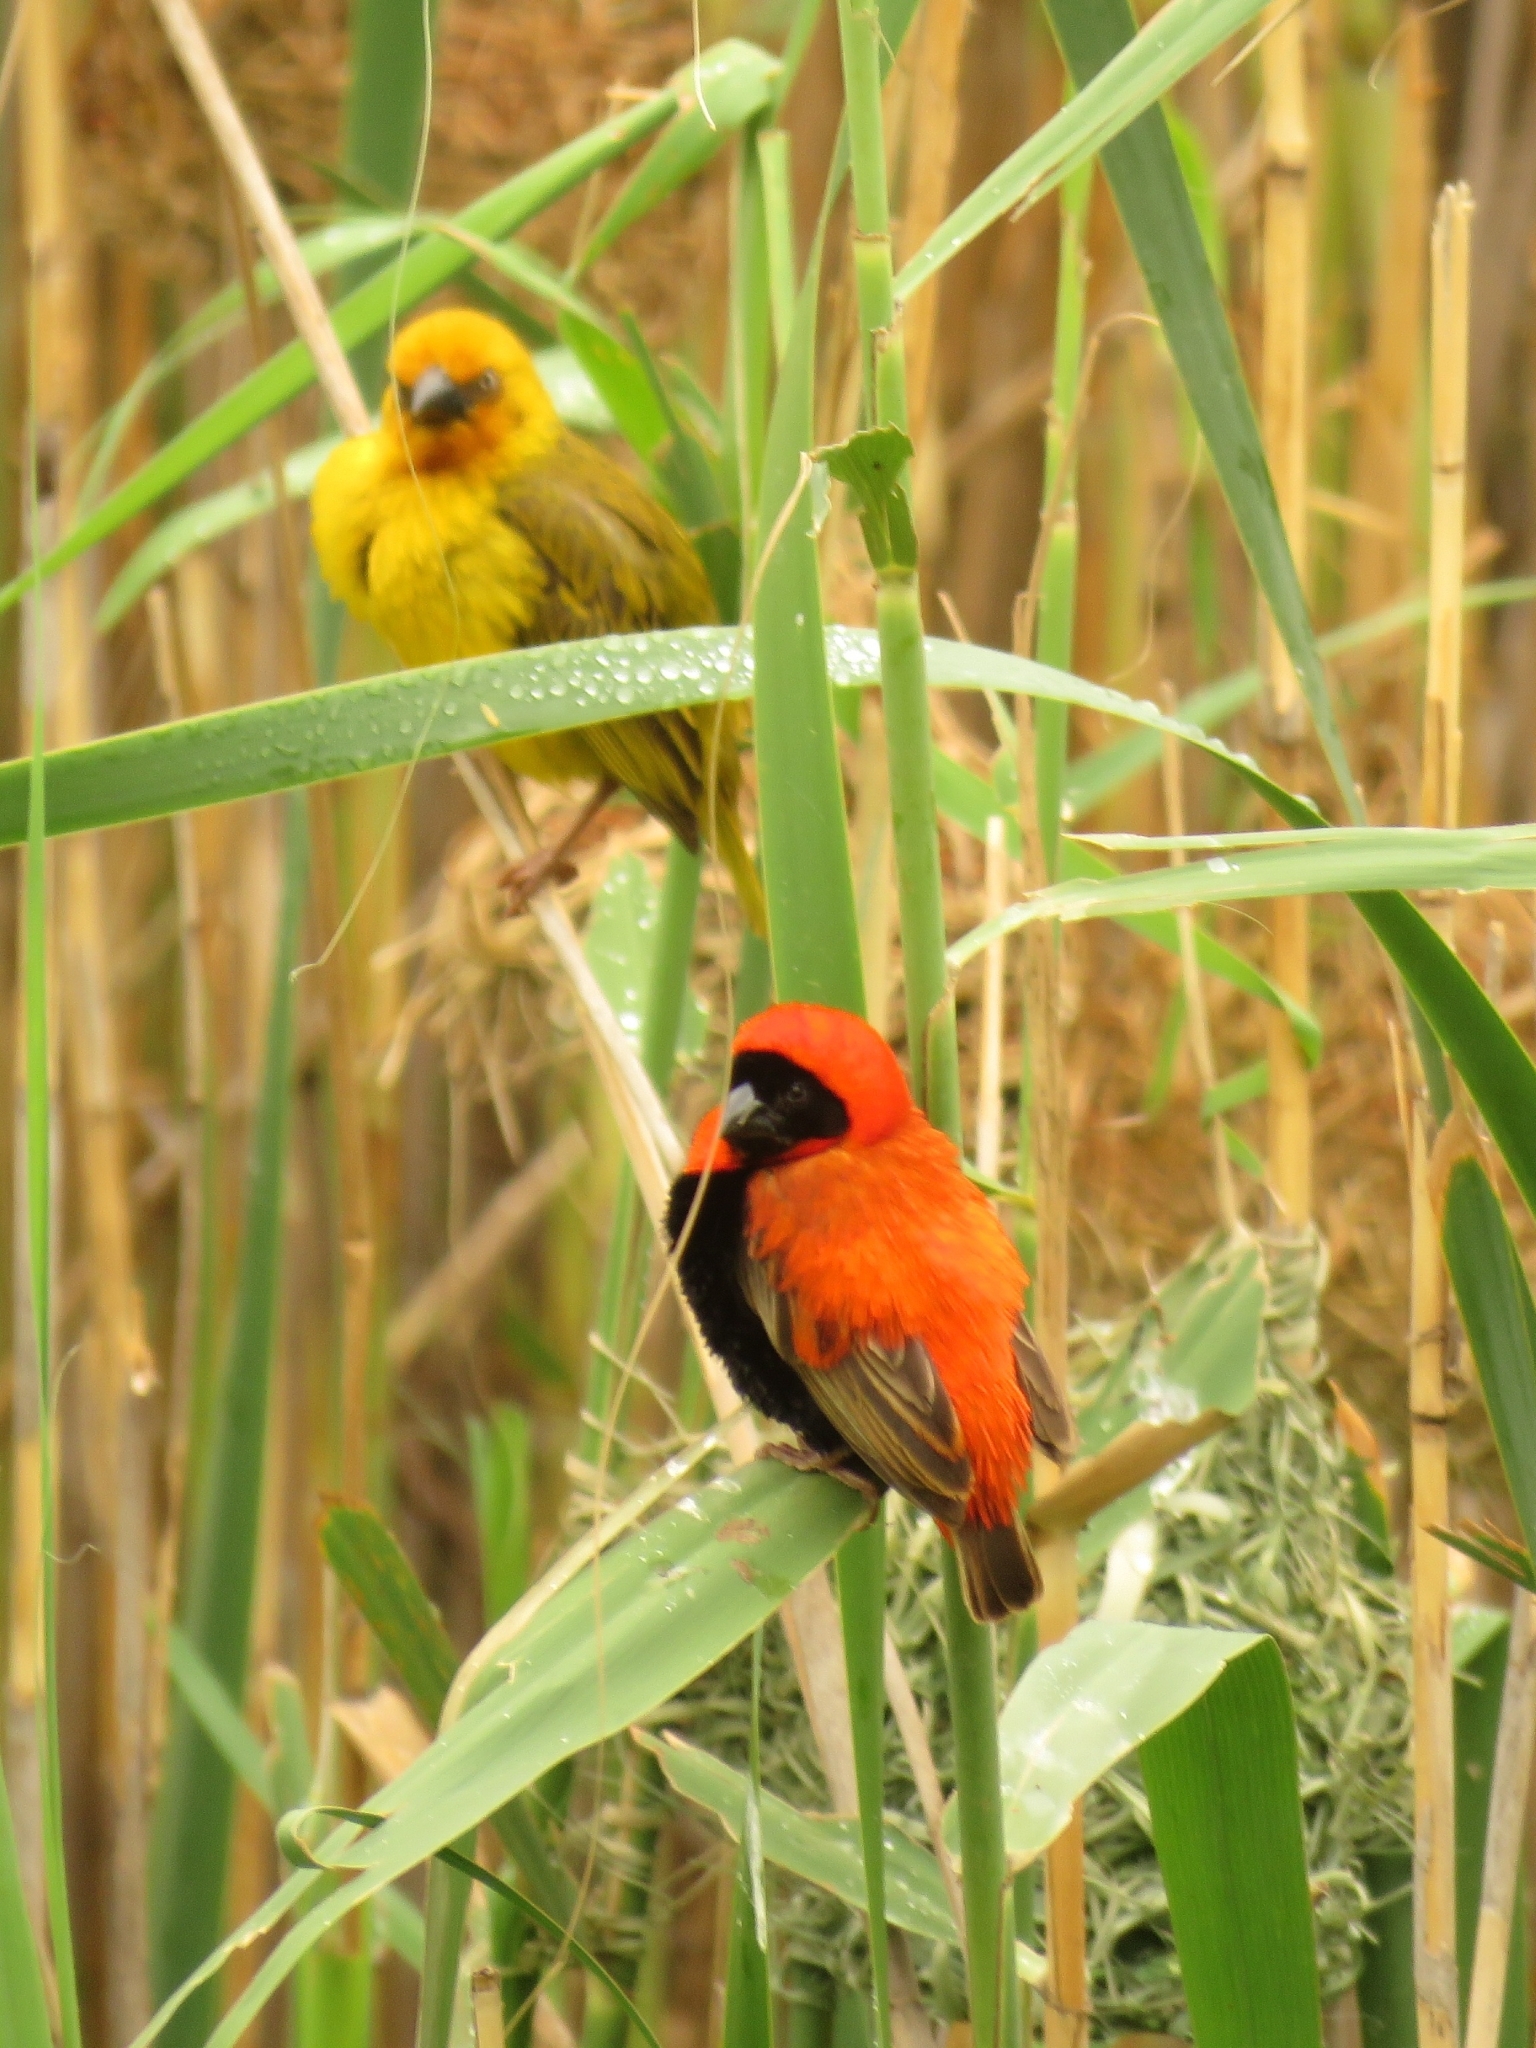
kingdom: Animalia
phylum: Chordata
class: Aves
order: Passeriformes
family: Ploceidae
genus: Euplectes
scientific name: Euplectes orix
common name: Southern red bishop
